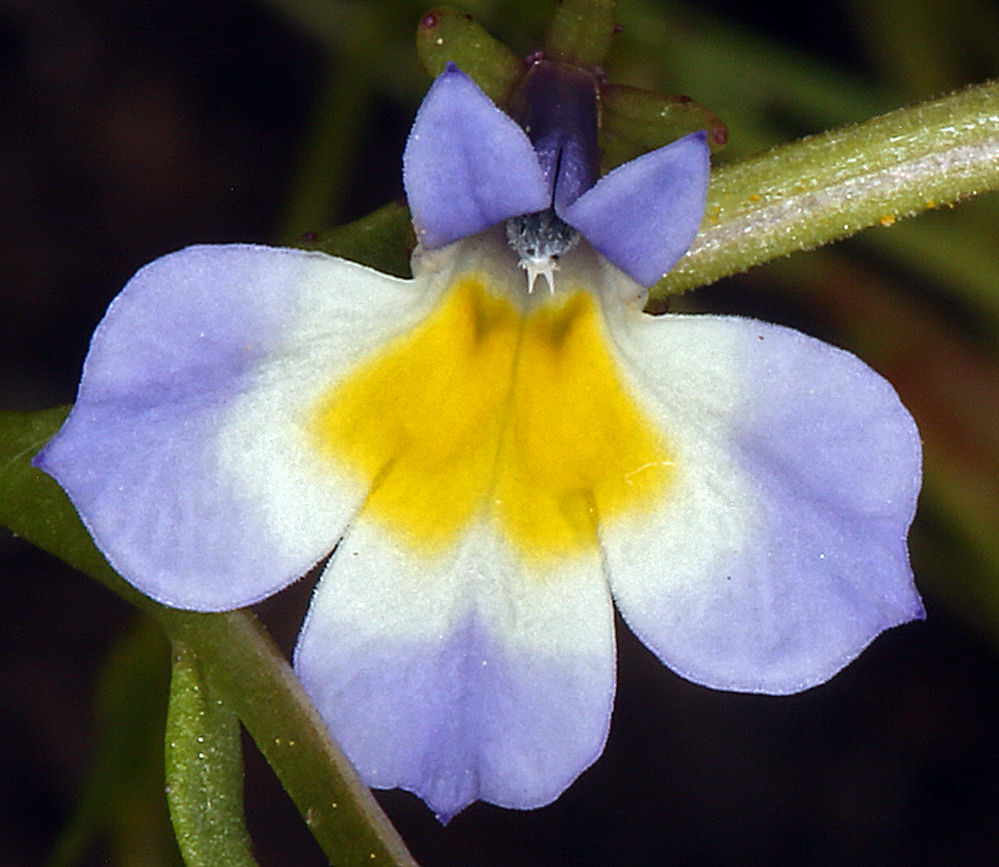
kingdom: Plantae
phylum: Tracheophyta
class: Magnoliopsida
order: Asterales
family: Campanulaceae
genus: Downingia
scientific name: Downingia cuspidata
